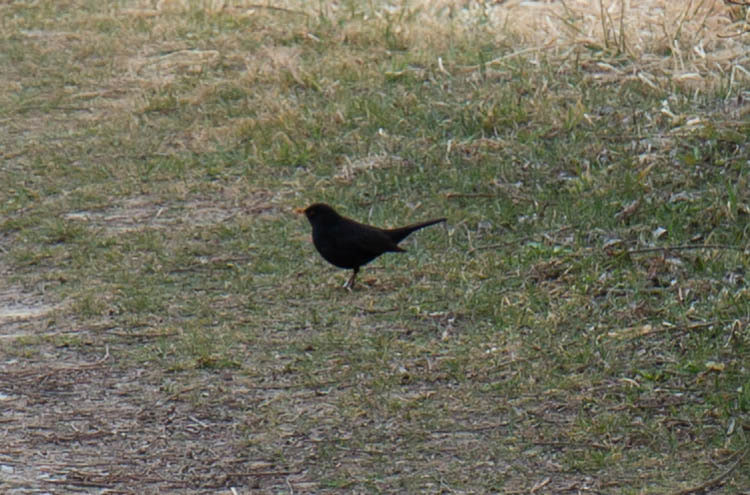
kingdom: Animalia
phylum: Chordata
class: Aves
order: Passeriformes
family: Turdidae
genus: Turdus
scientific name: Turdus merula
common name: Common blackbird
